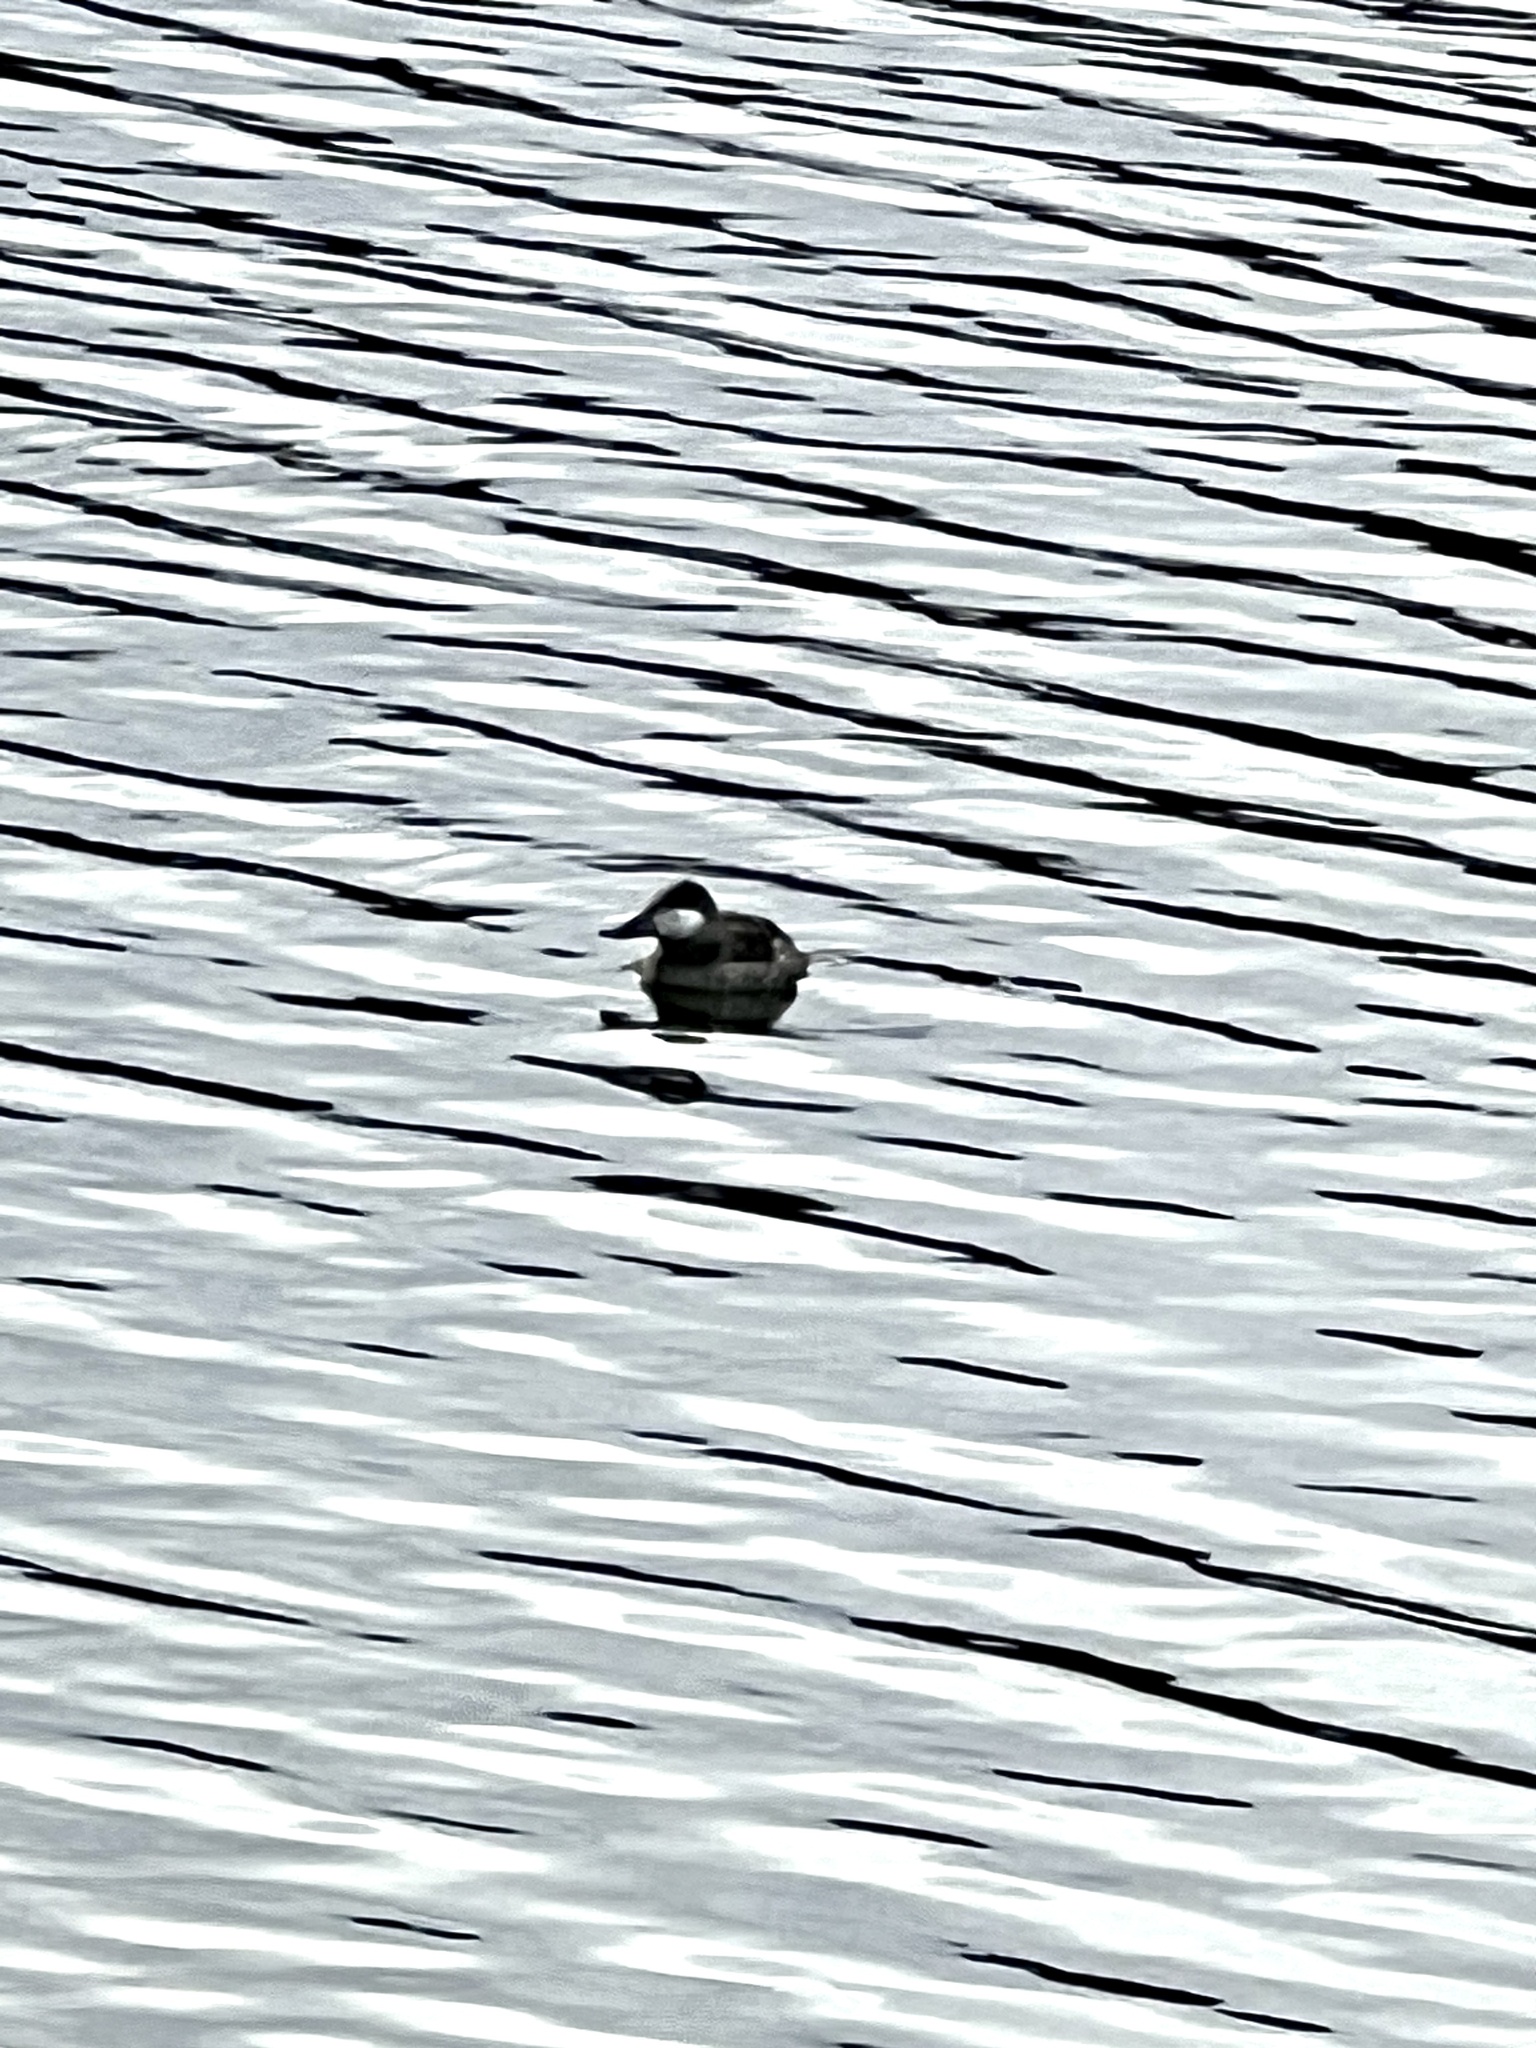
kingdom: Animalia
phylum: Chordata
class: Aves
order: Anseriformes
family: Anatidae
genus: Oxyura
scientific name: Oxyura jamaicensis
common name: Ruddy duck
